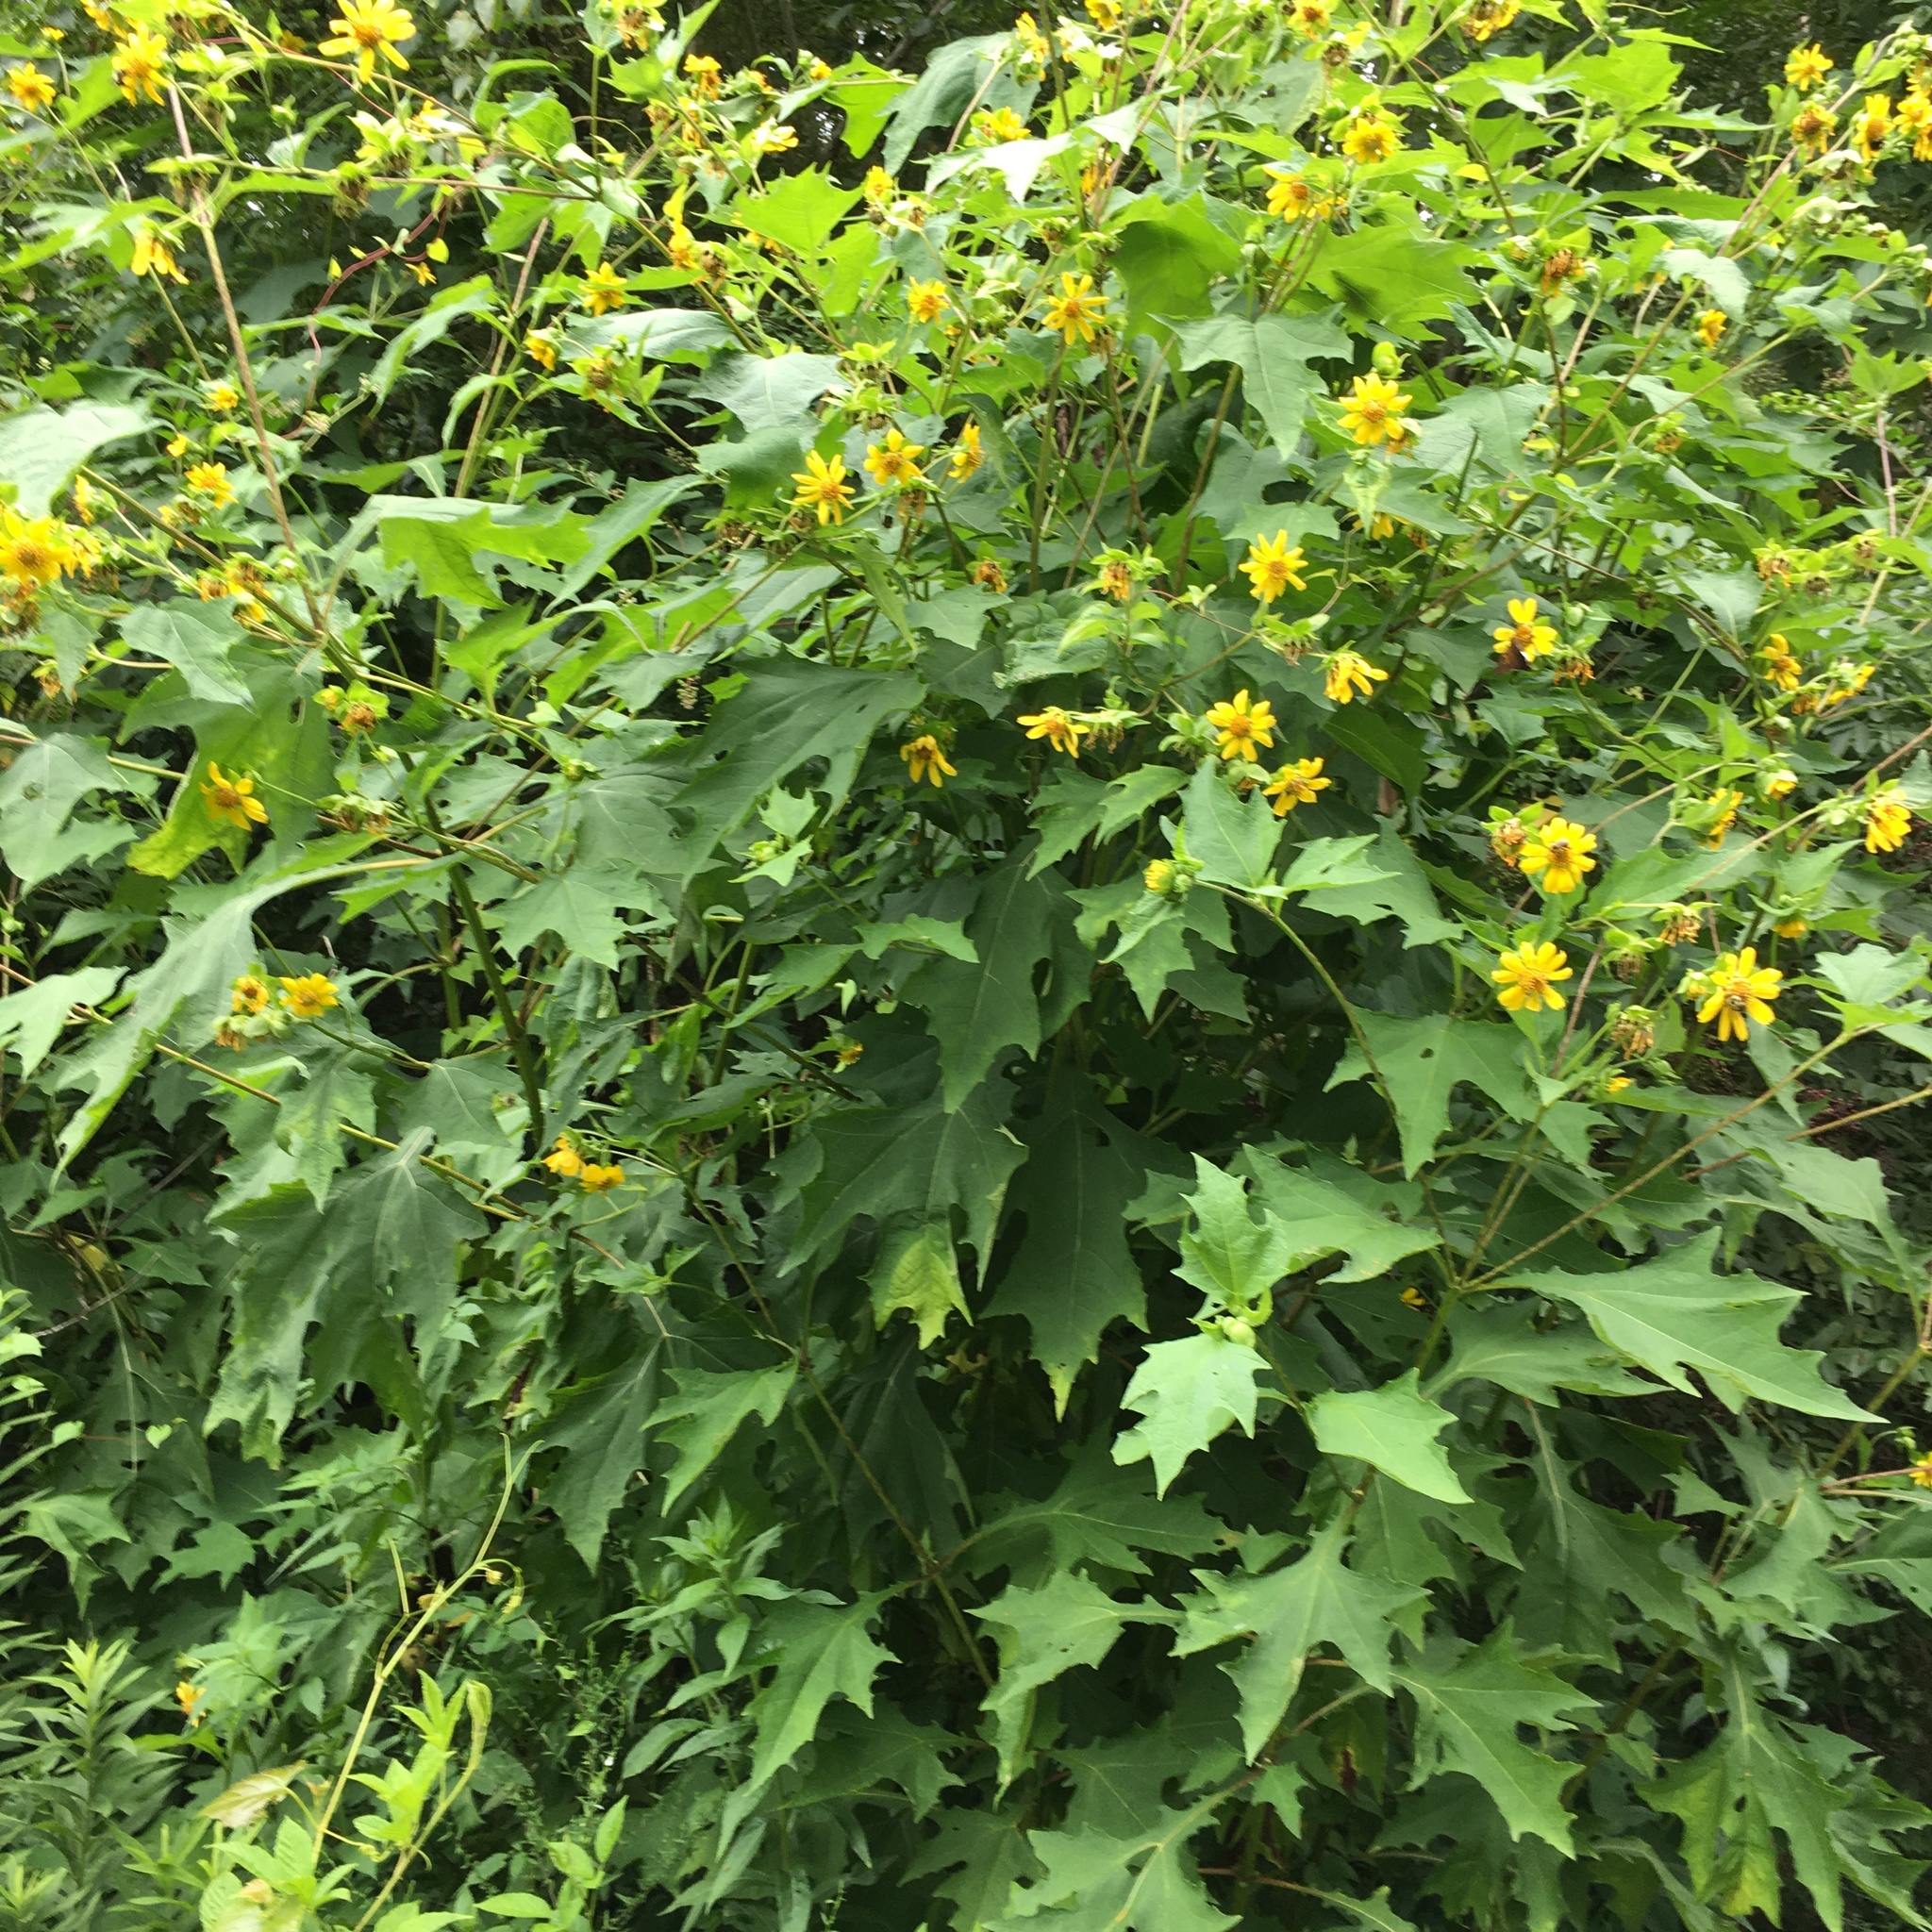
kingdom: Plantae
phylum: Tracheophyta
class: Magnoliopsida
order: Asterales
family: Asteraceae
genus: Smallanthus
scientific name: Smallanthus uvedalia
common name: Bear's-foot
